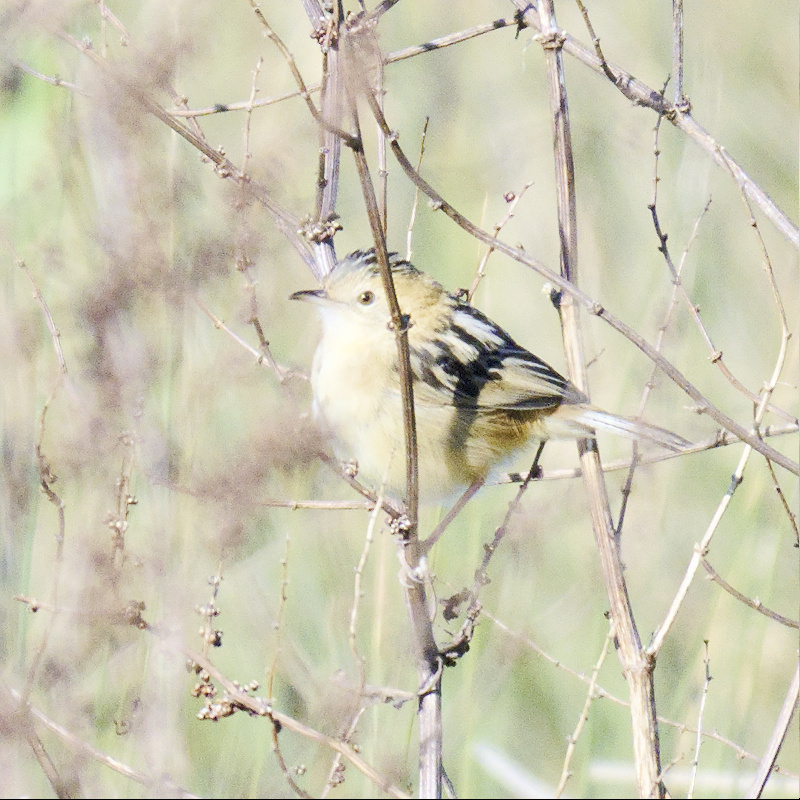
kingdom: Animalia
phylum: Chordata
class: Aves
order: Passeriformes
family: Cisticolidae
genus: Cisticola
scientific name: Cisticola exilis
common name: Golden-headed cisticola
